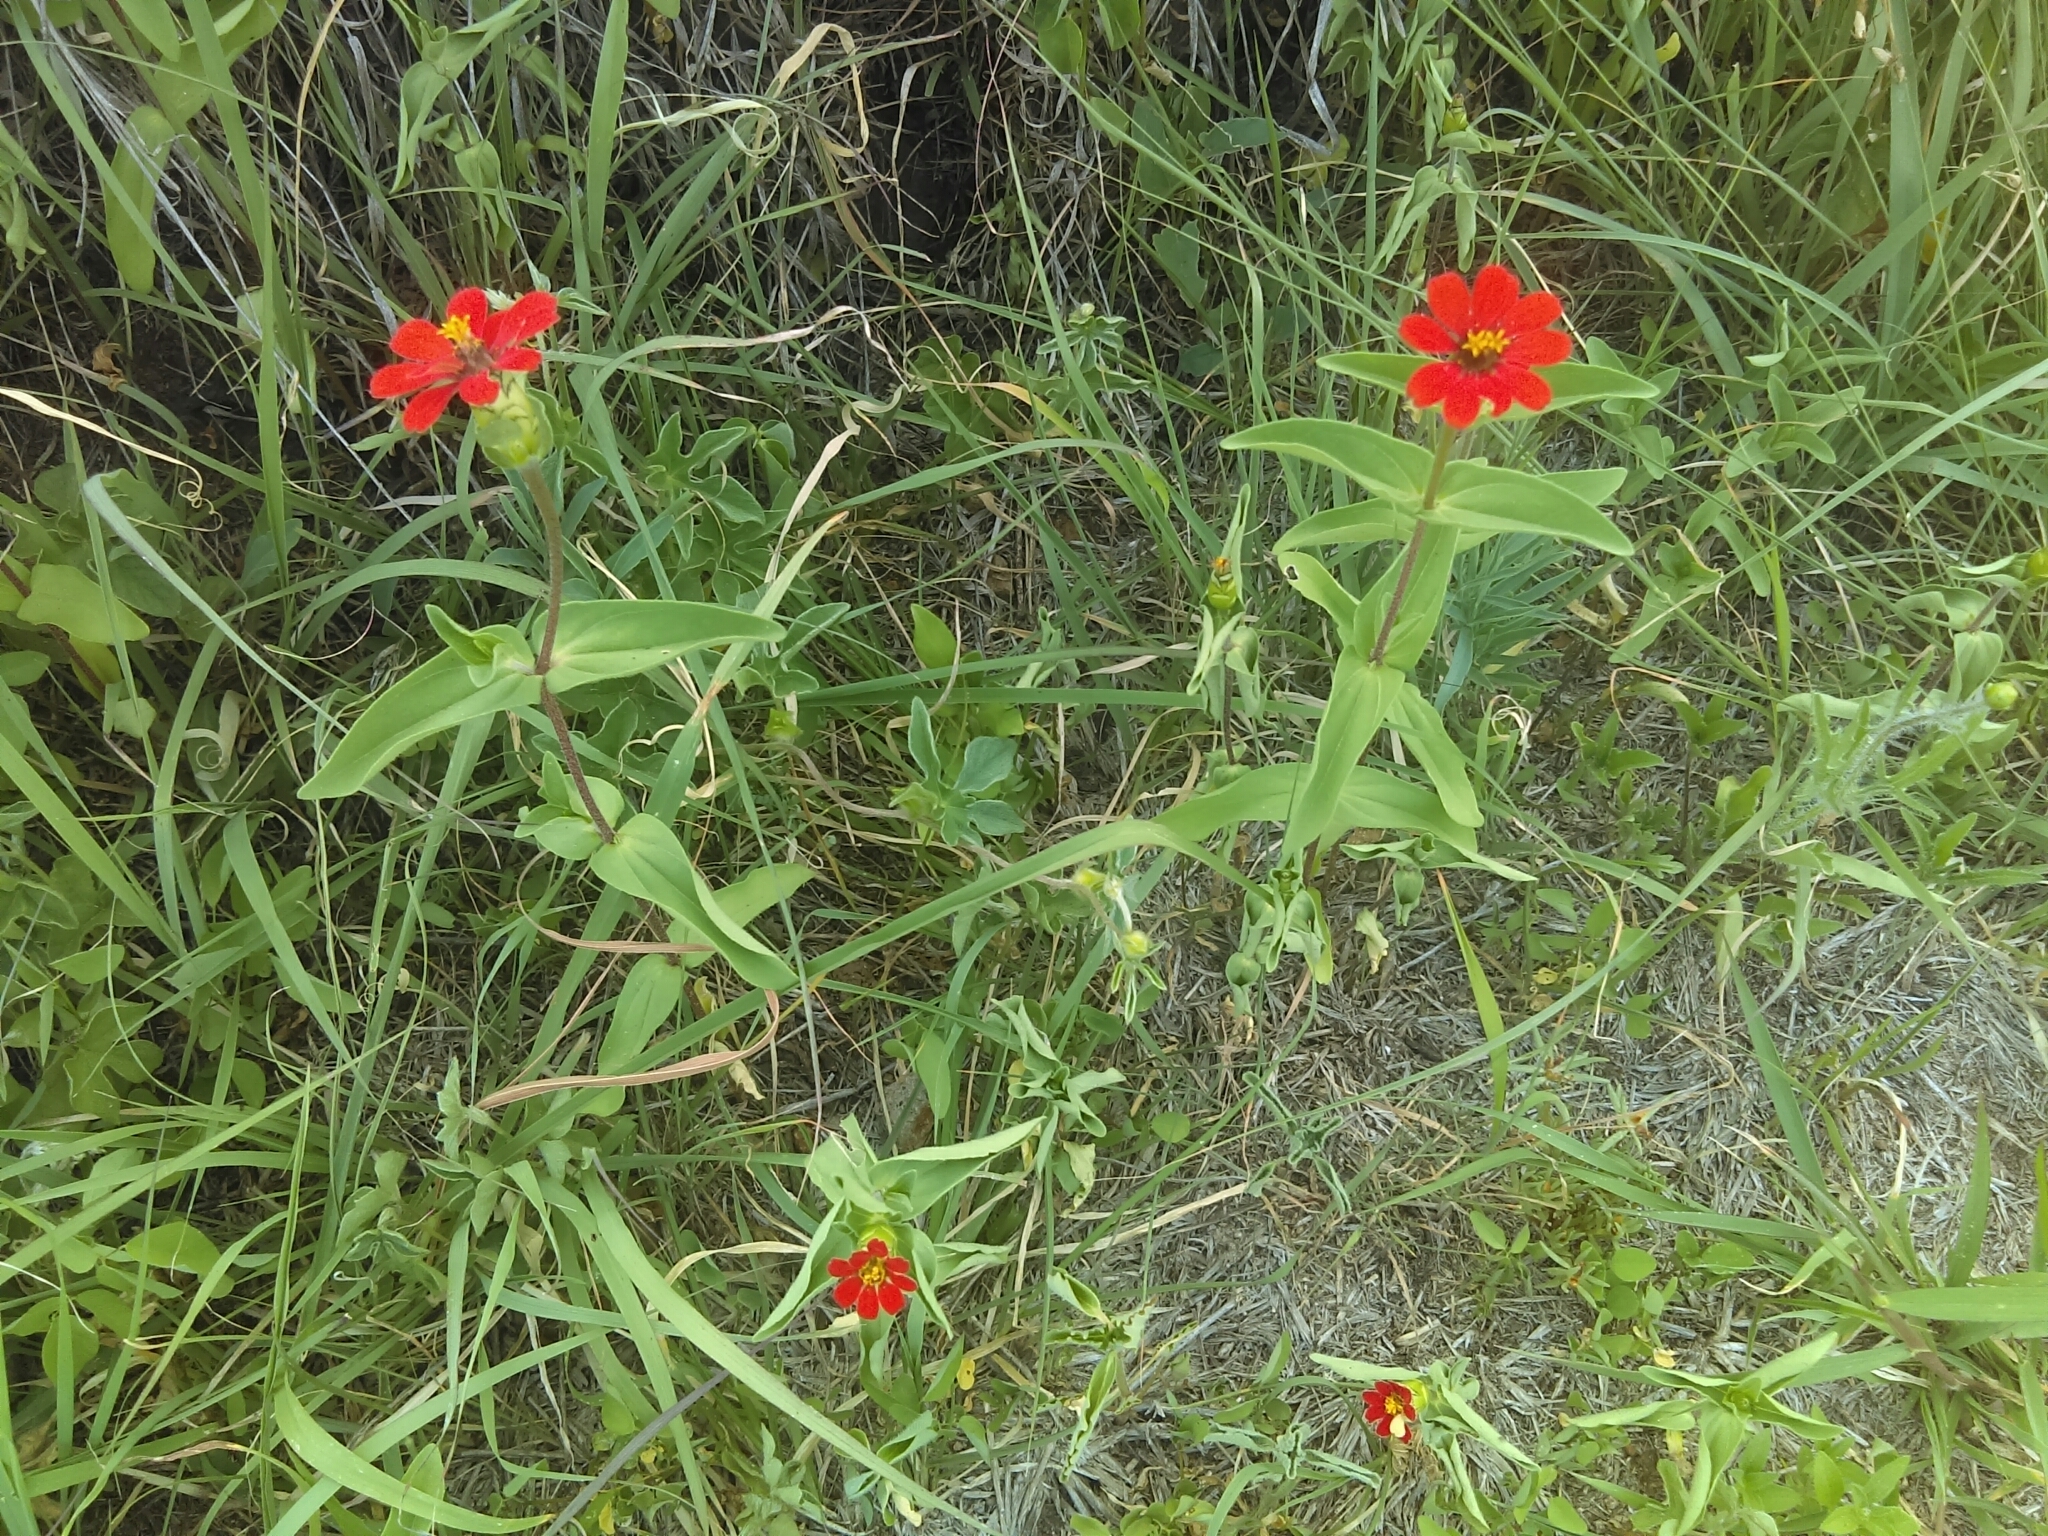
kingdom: Plantae
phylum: Tracheophyta
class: Magnoliopsida
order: Asterales
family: Asteraceae
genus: Zinnia
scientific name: Zinnia peruviana
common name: Peruvian zinnia
